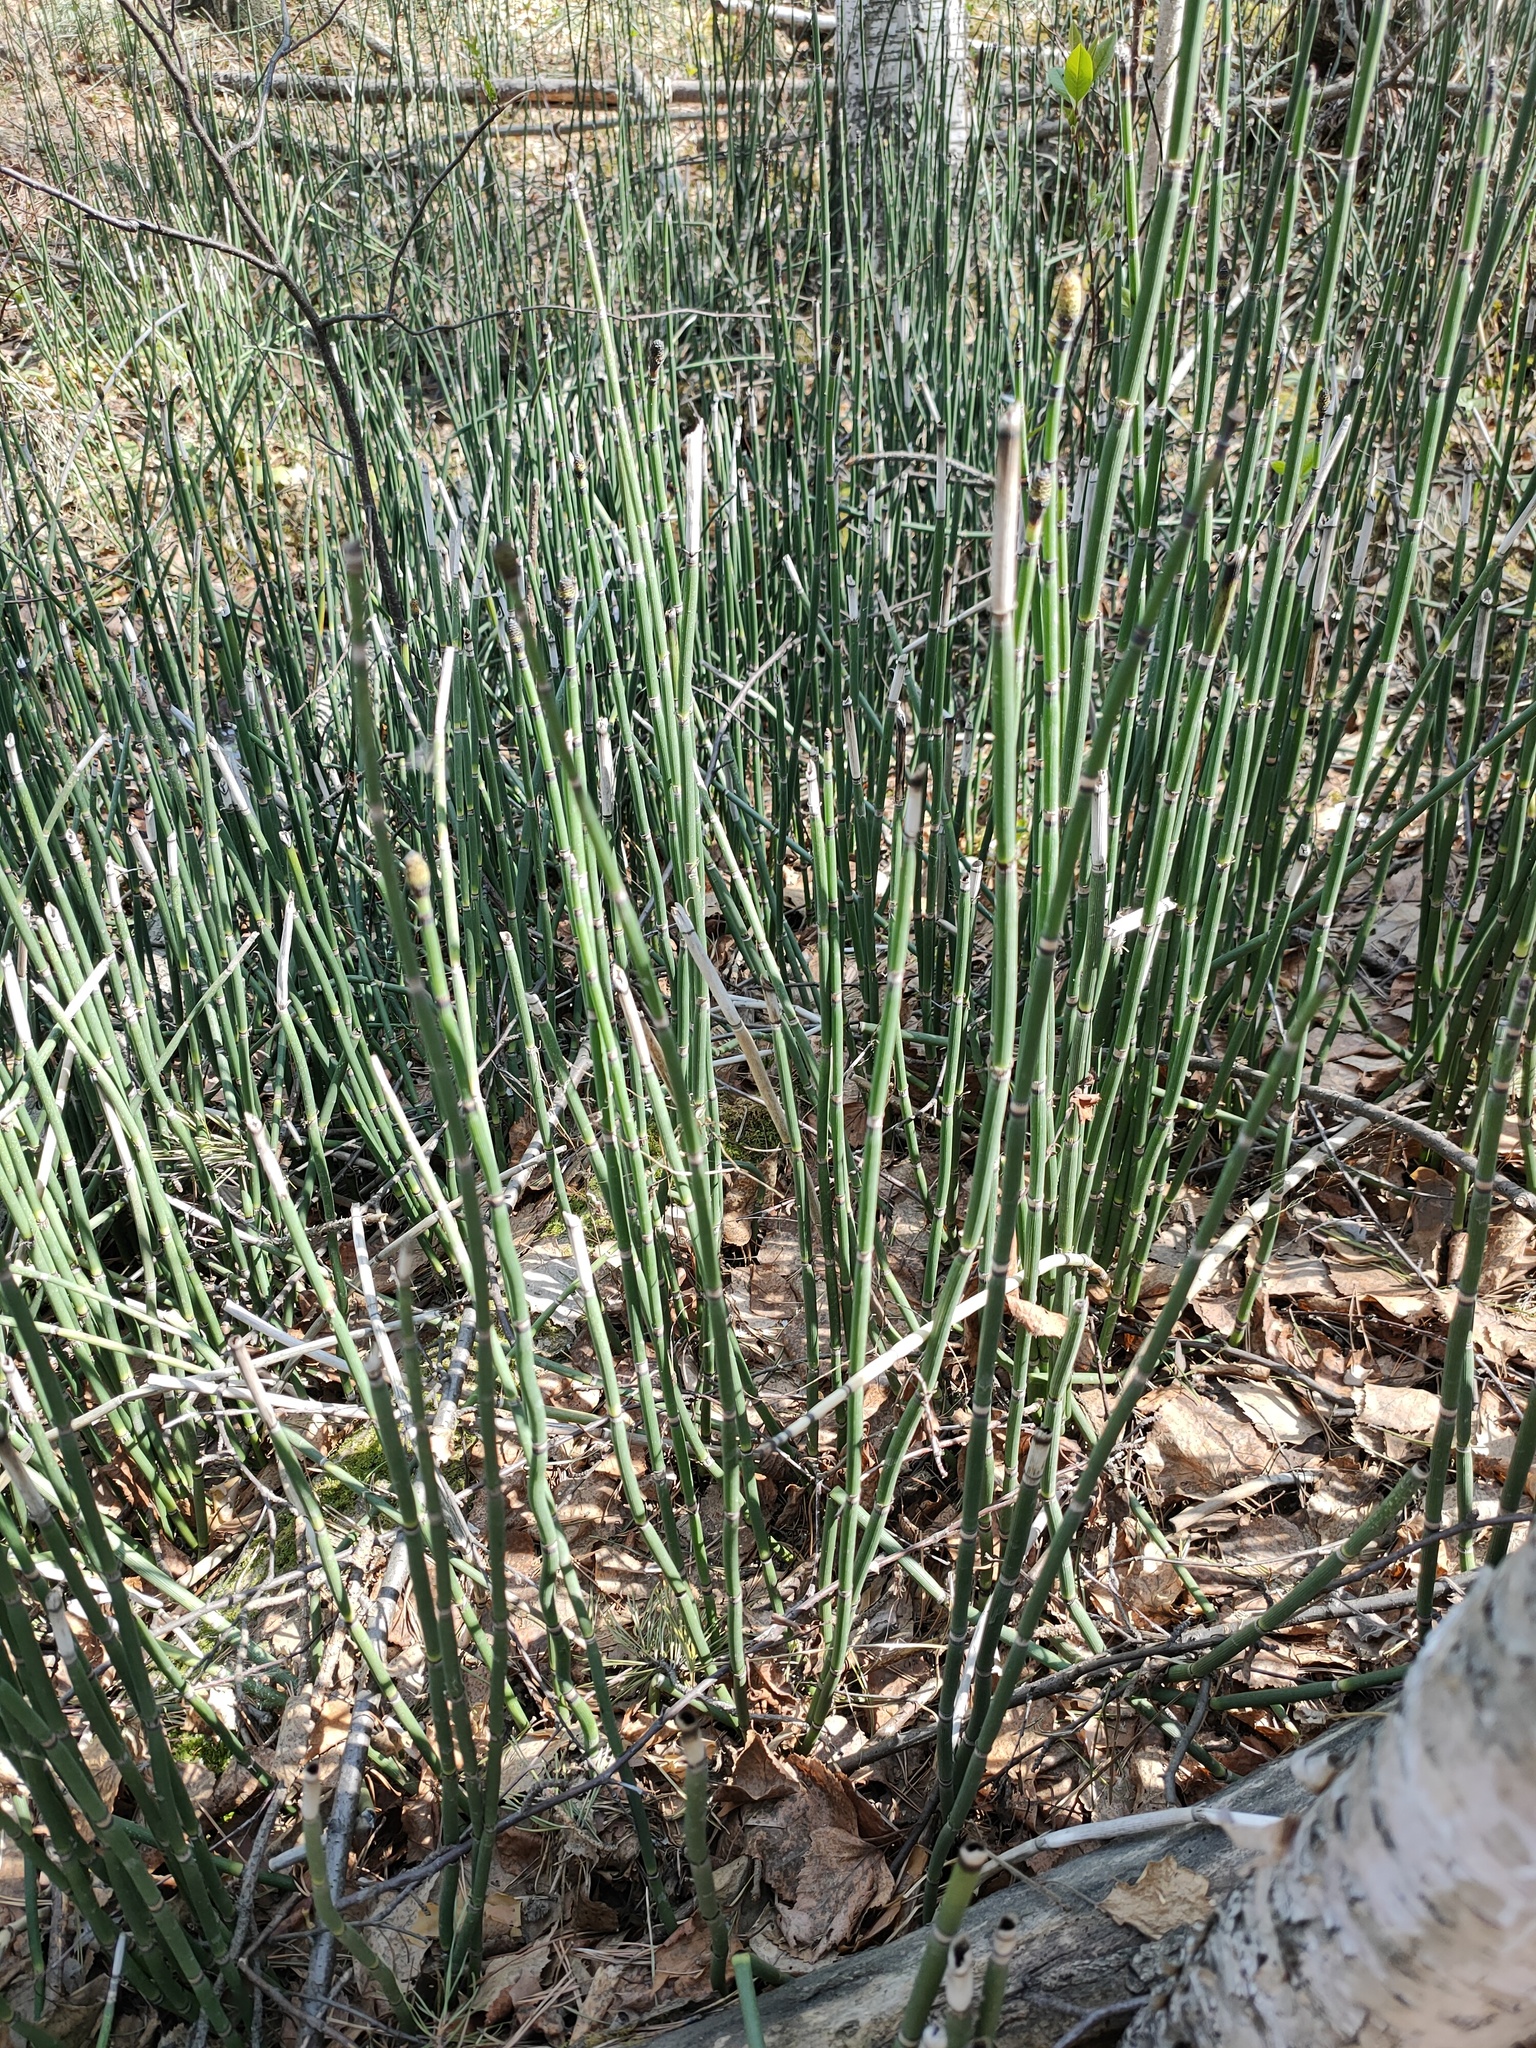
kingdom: Plantae
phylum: Tracheophyta
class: Polypodiopsida
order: Equisetales
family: Equisetaceae
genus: Equisetum
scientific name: Equisetum hyemale
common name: Rough horsetail
